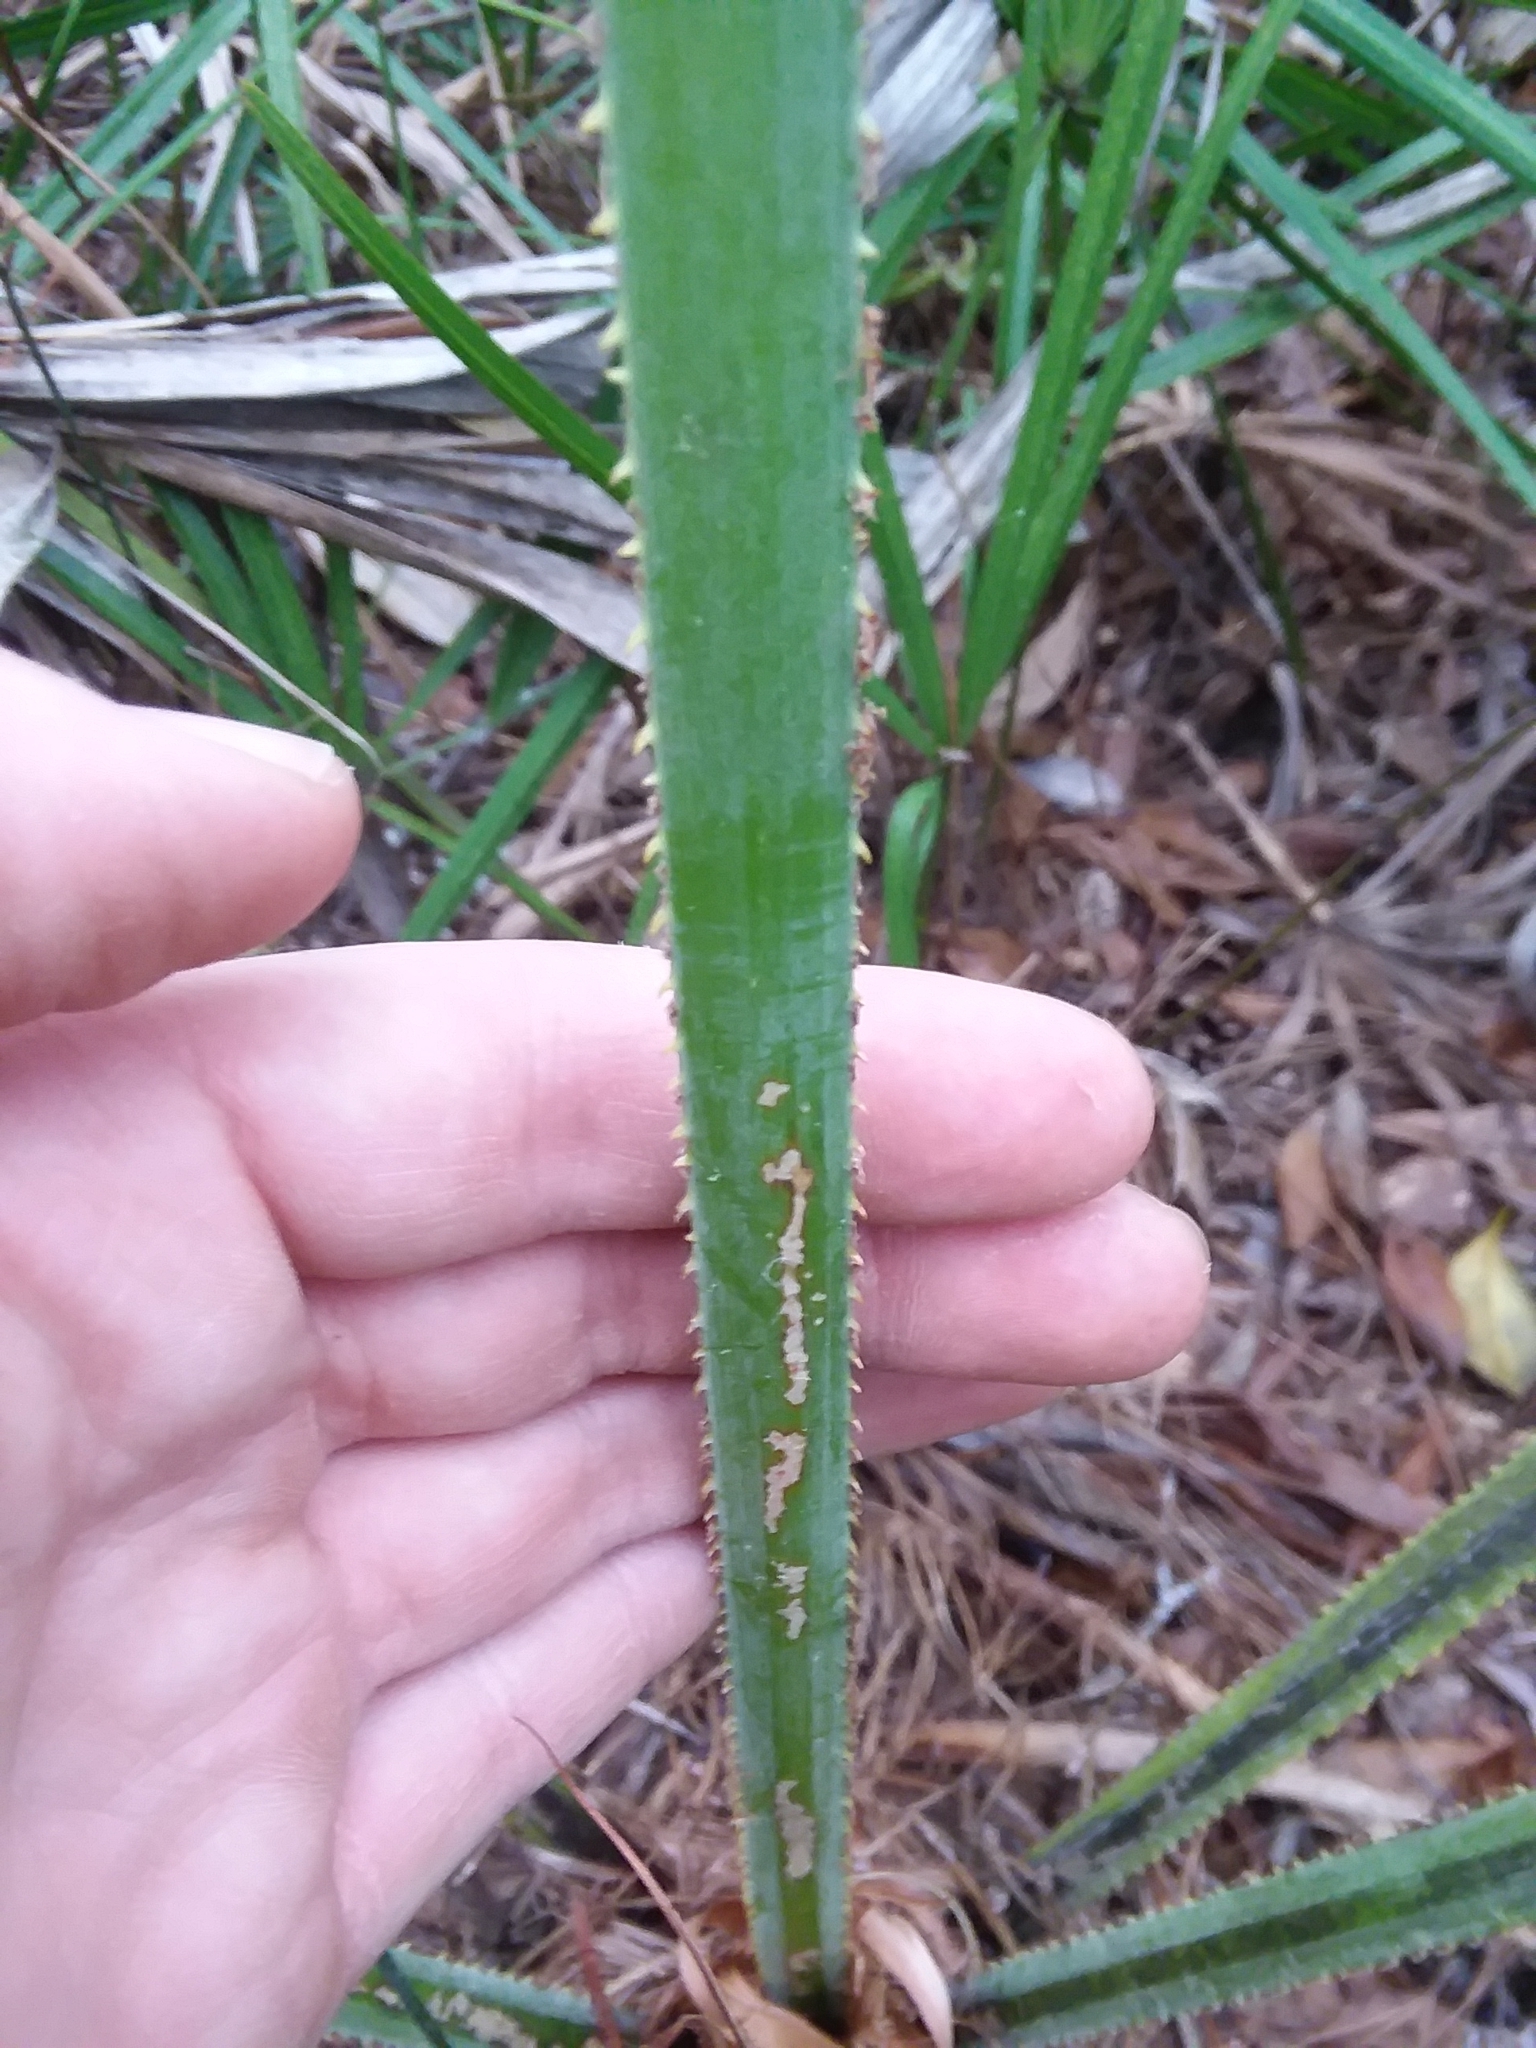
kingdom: Plantae
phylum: Tracheophyta
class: Liliopsida
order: Arecales
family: Arecaceae
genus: Serenoa
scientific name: Serenoa repens
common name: Saw-palmetto
